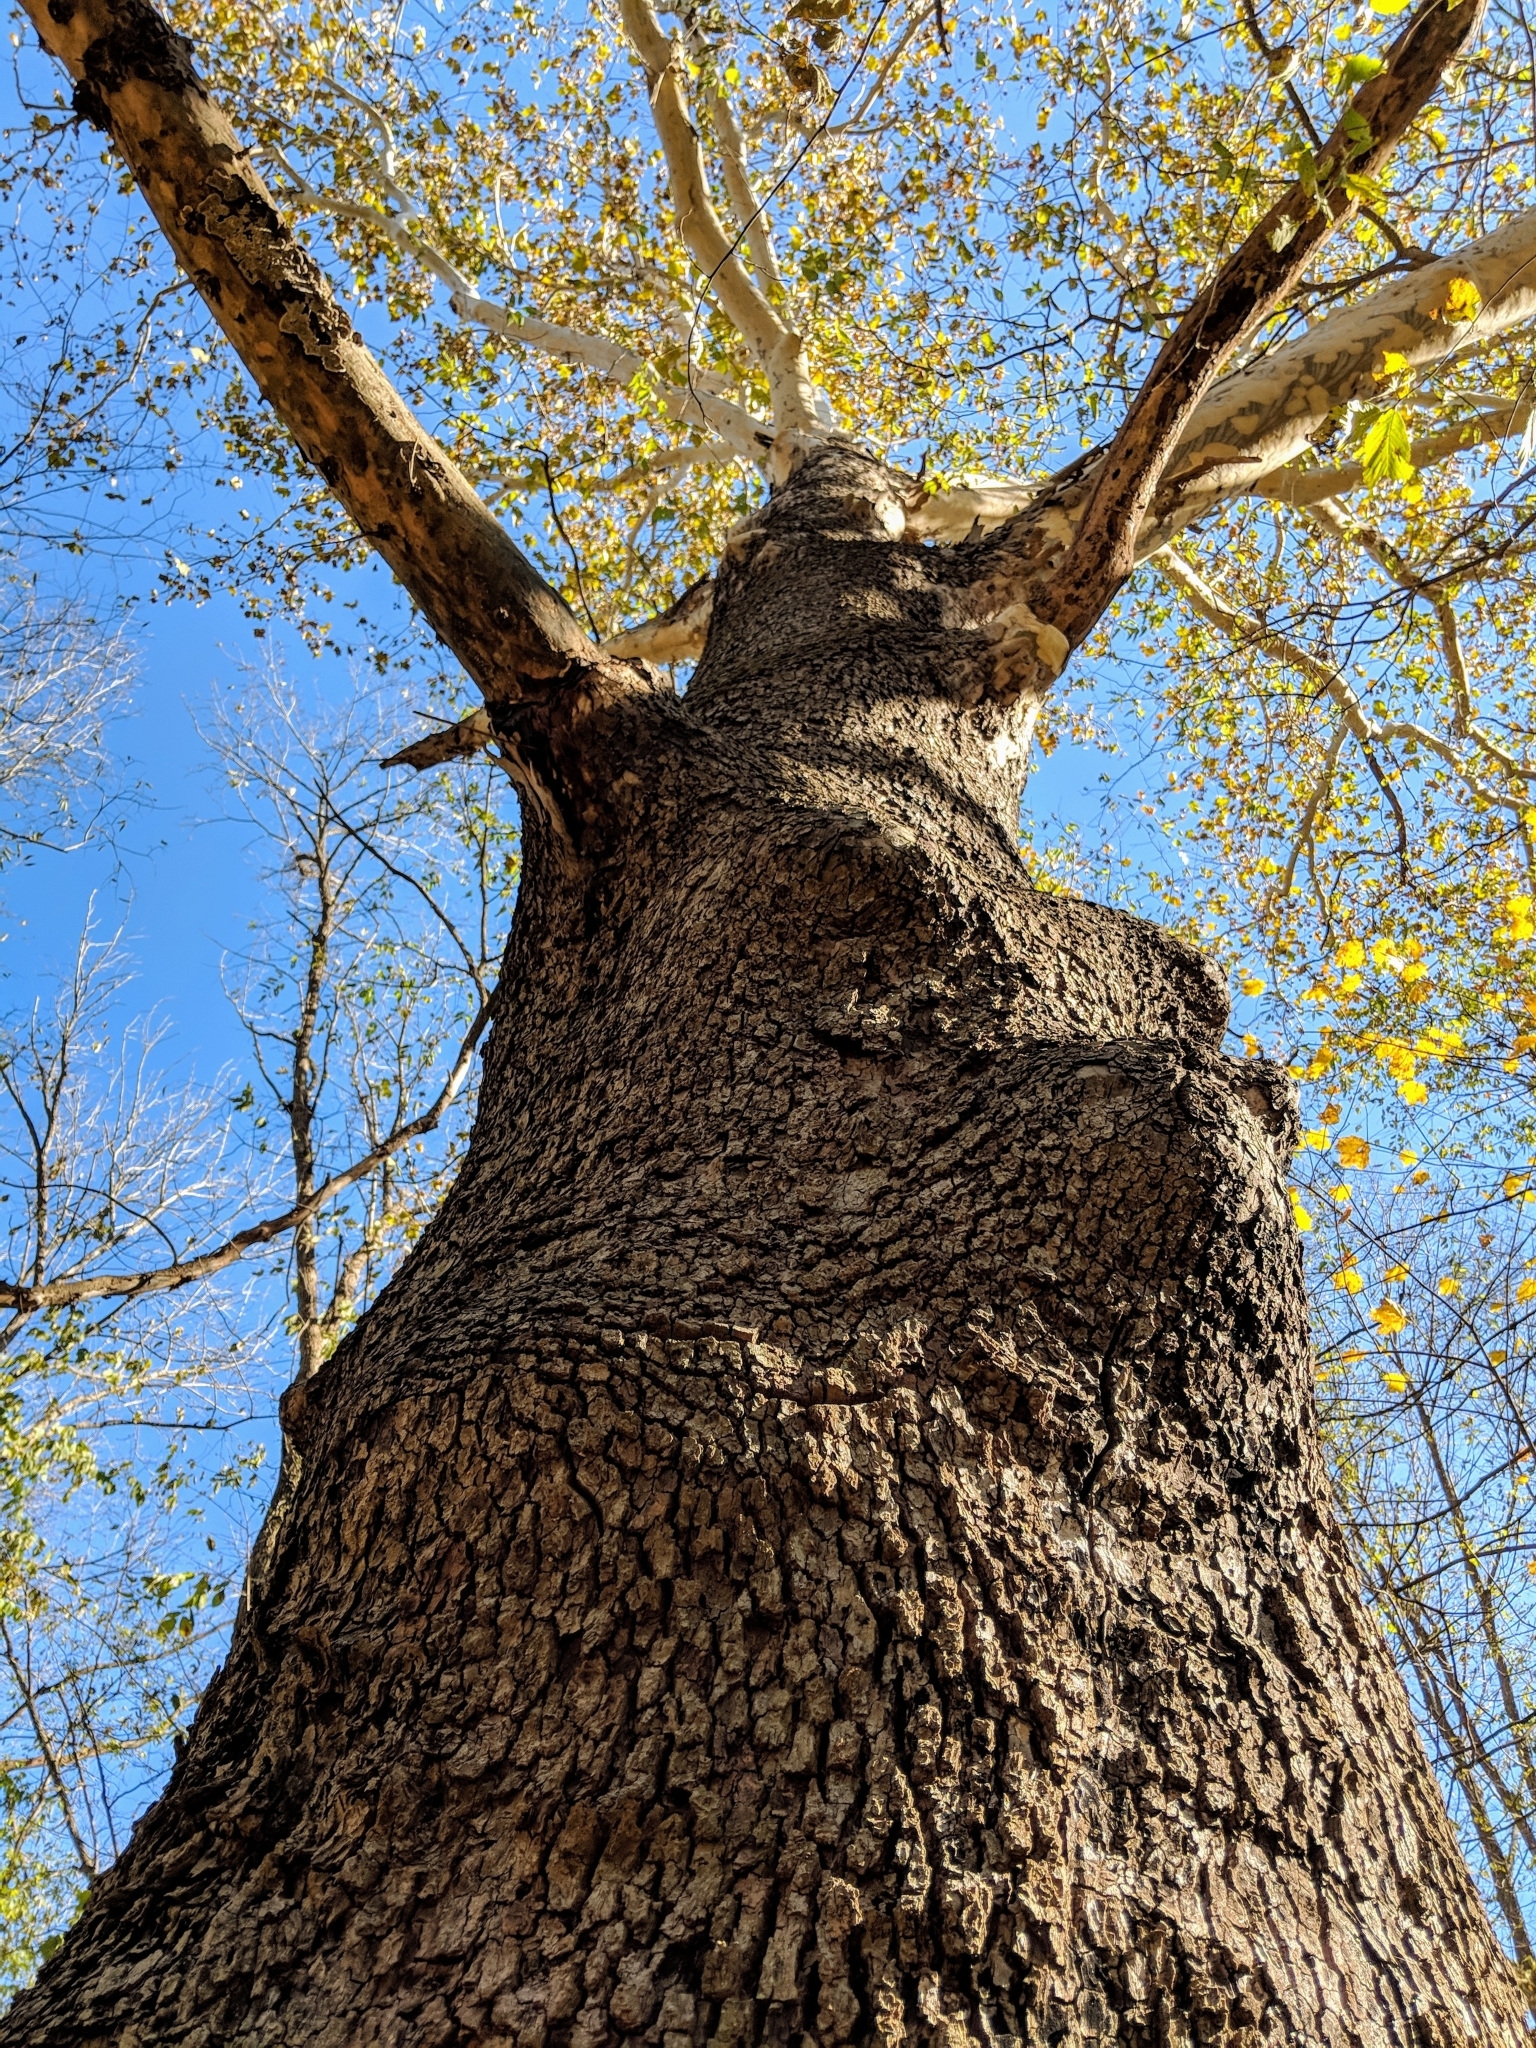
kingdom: Plantae
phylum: Tracheophyta
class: Magnoliopsida
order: Proteales
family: Platanaceae
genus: Platanus
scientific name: Platanus occidentalis
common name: American sycamore
